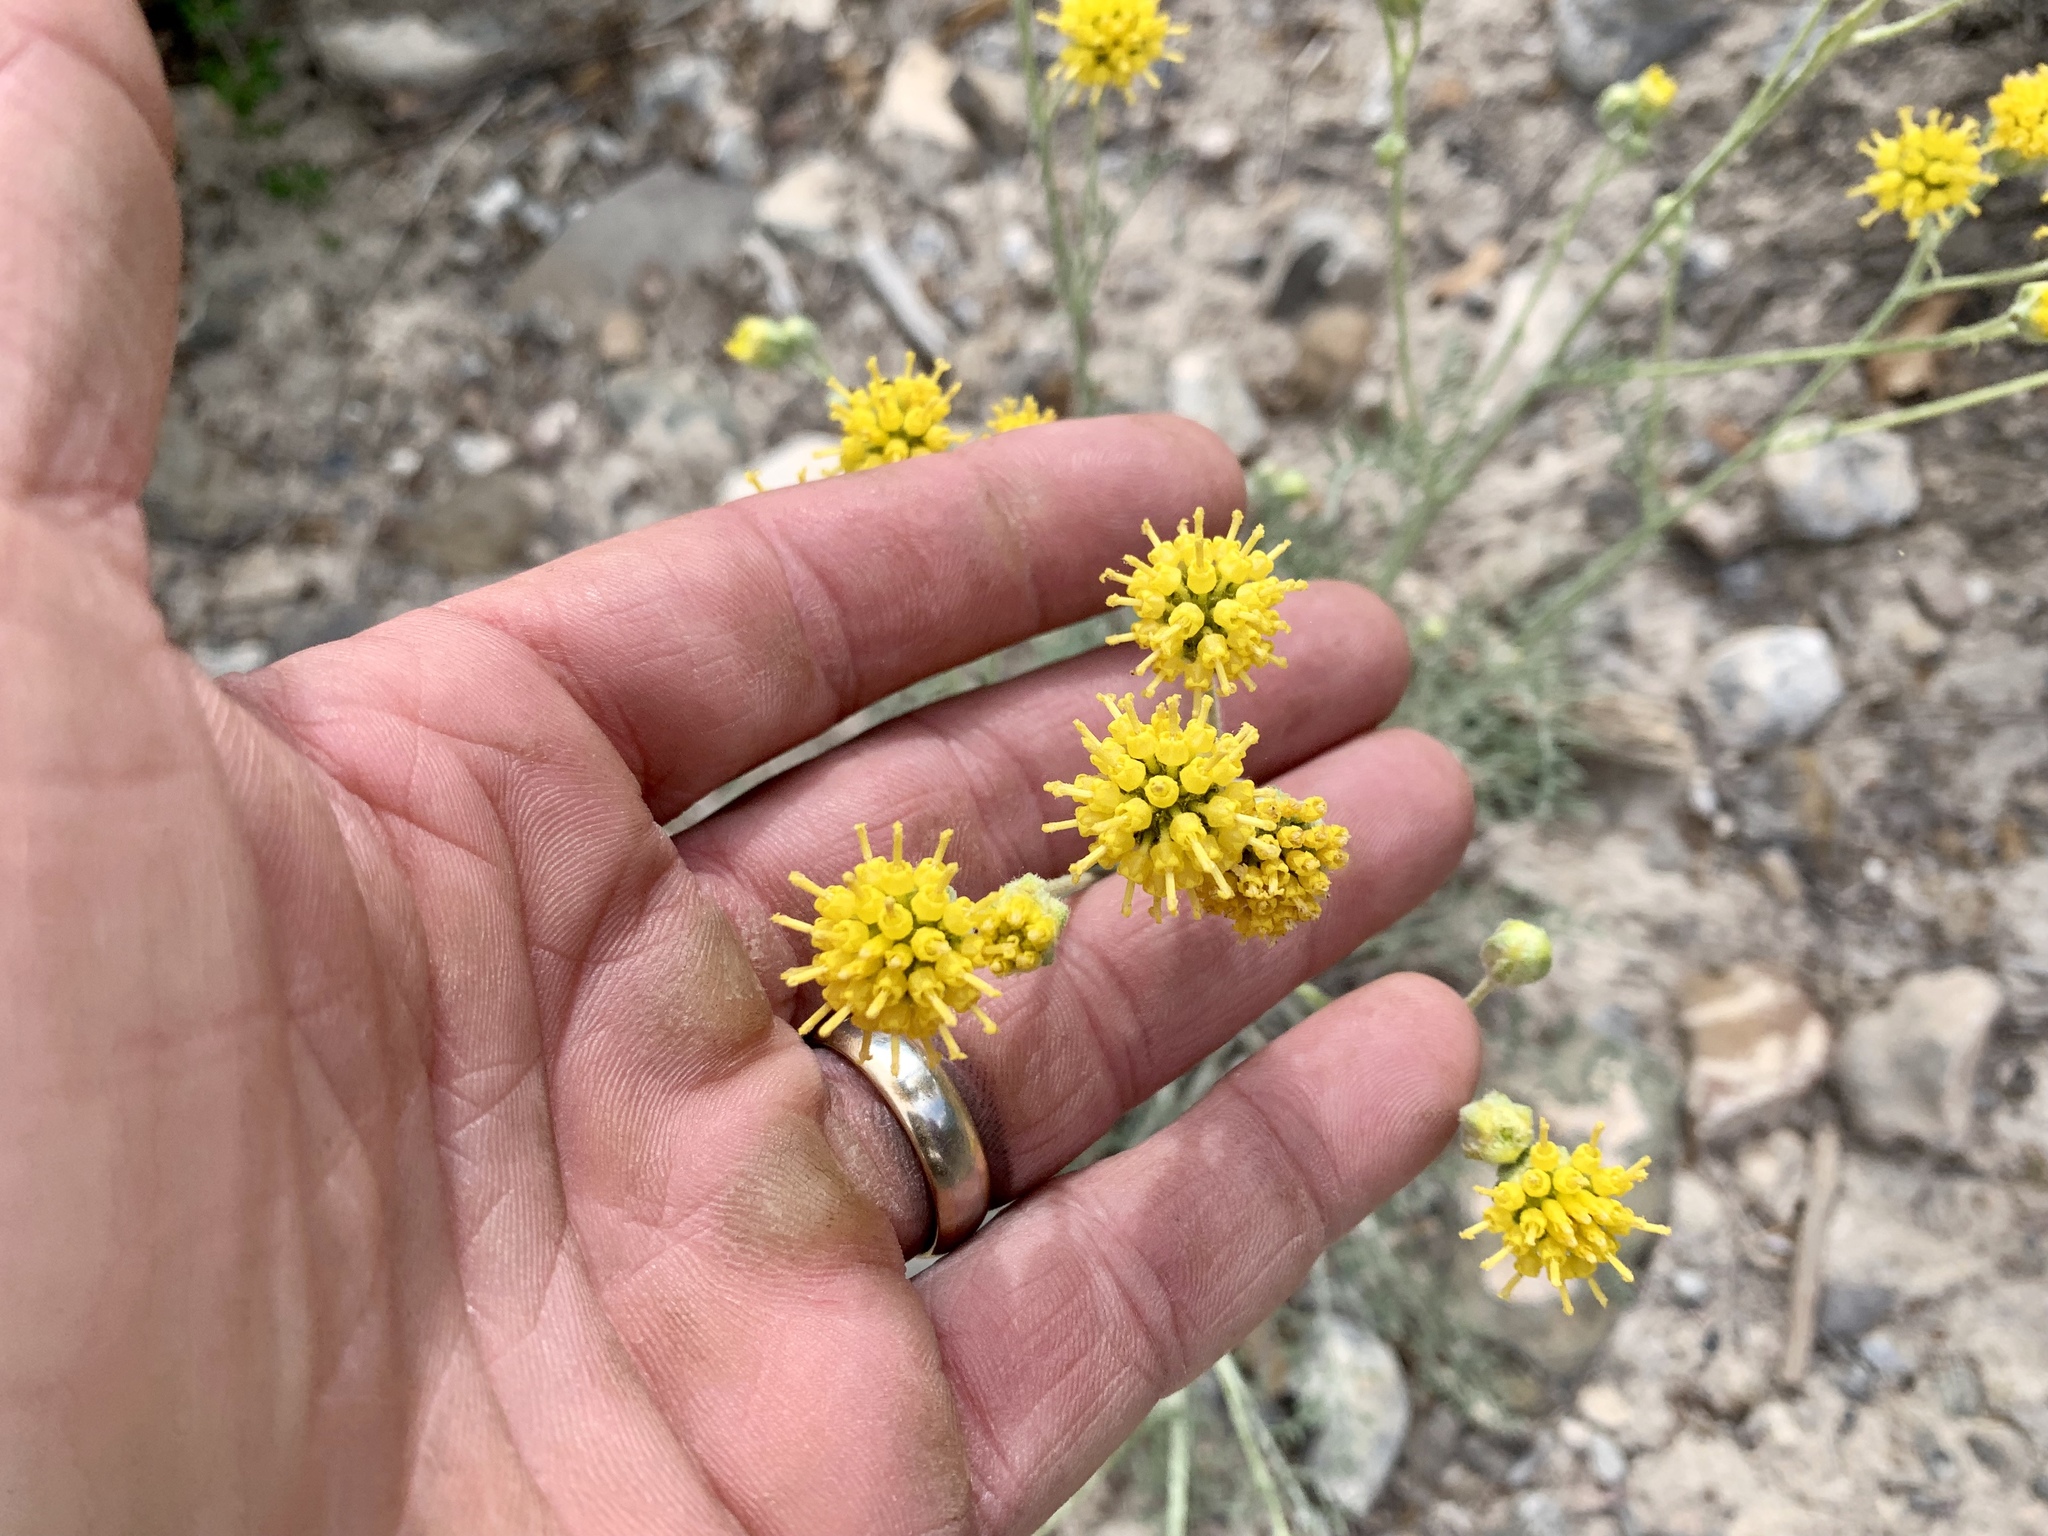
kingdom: Plantae
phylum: Tracheophyta
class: Magnoliopsida
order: Asterales
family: Asteraceae
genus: Hymenopappus
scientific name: Hymenopappus filifolius
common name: Columbia cutleaf
